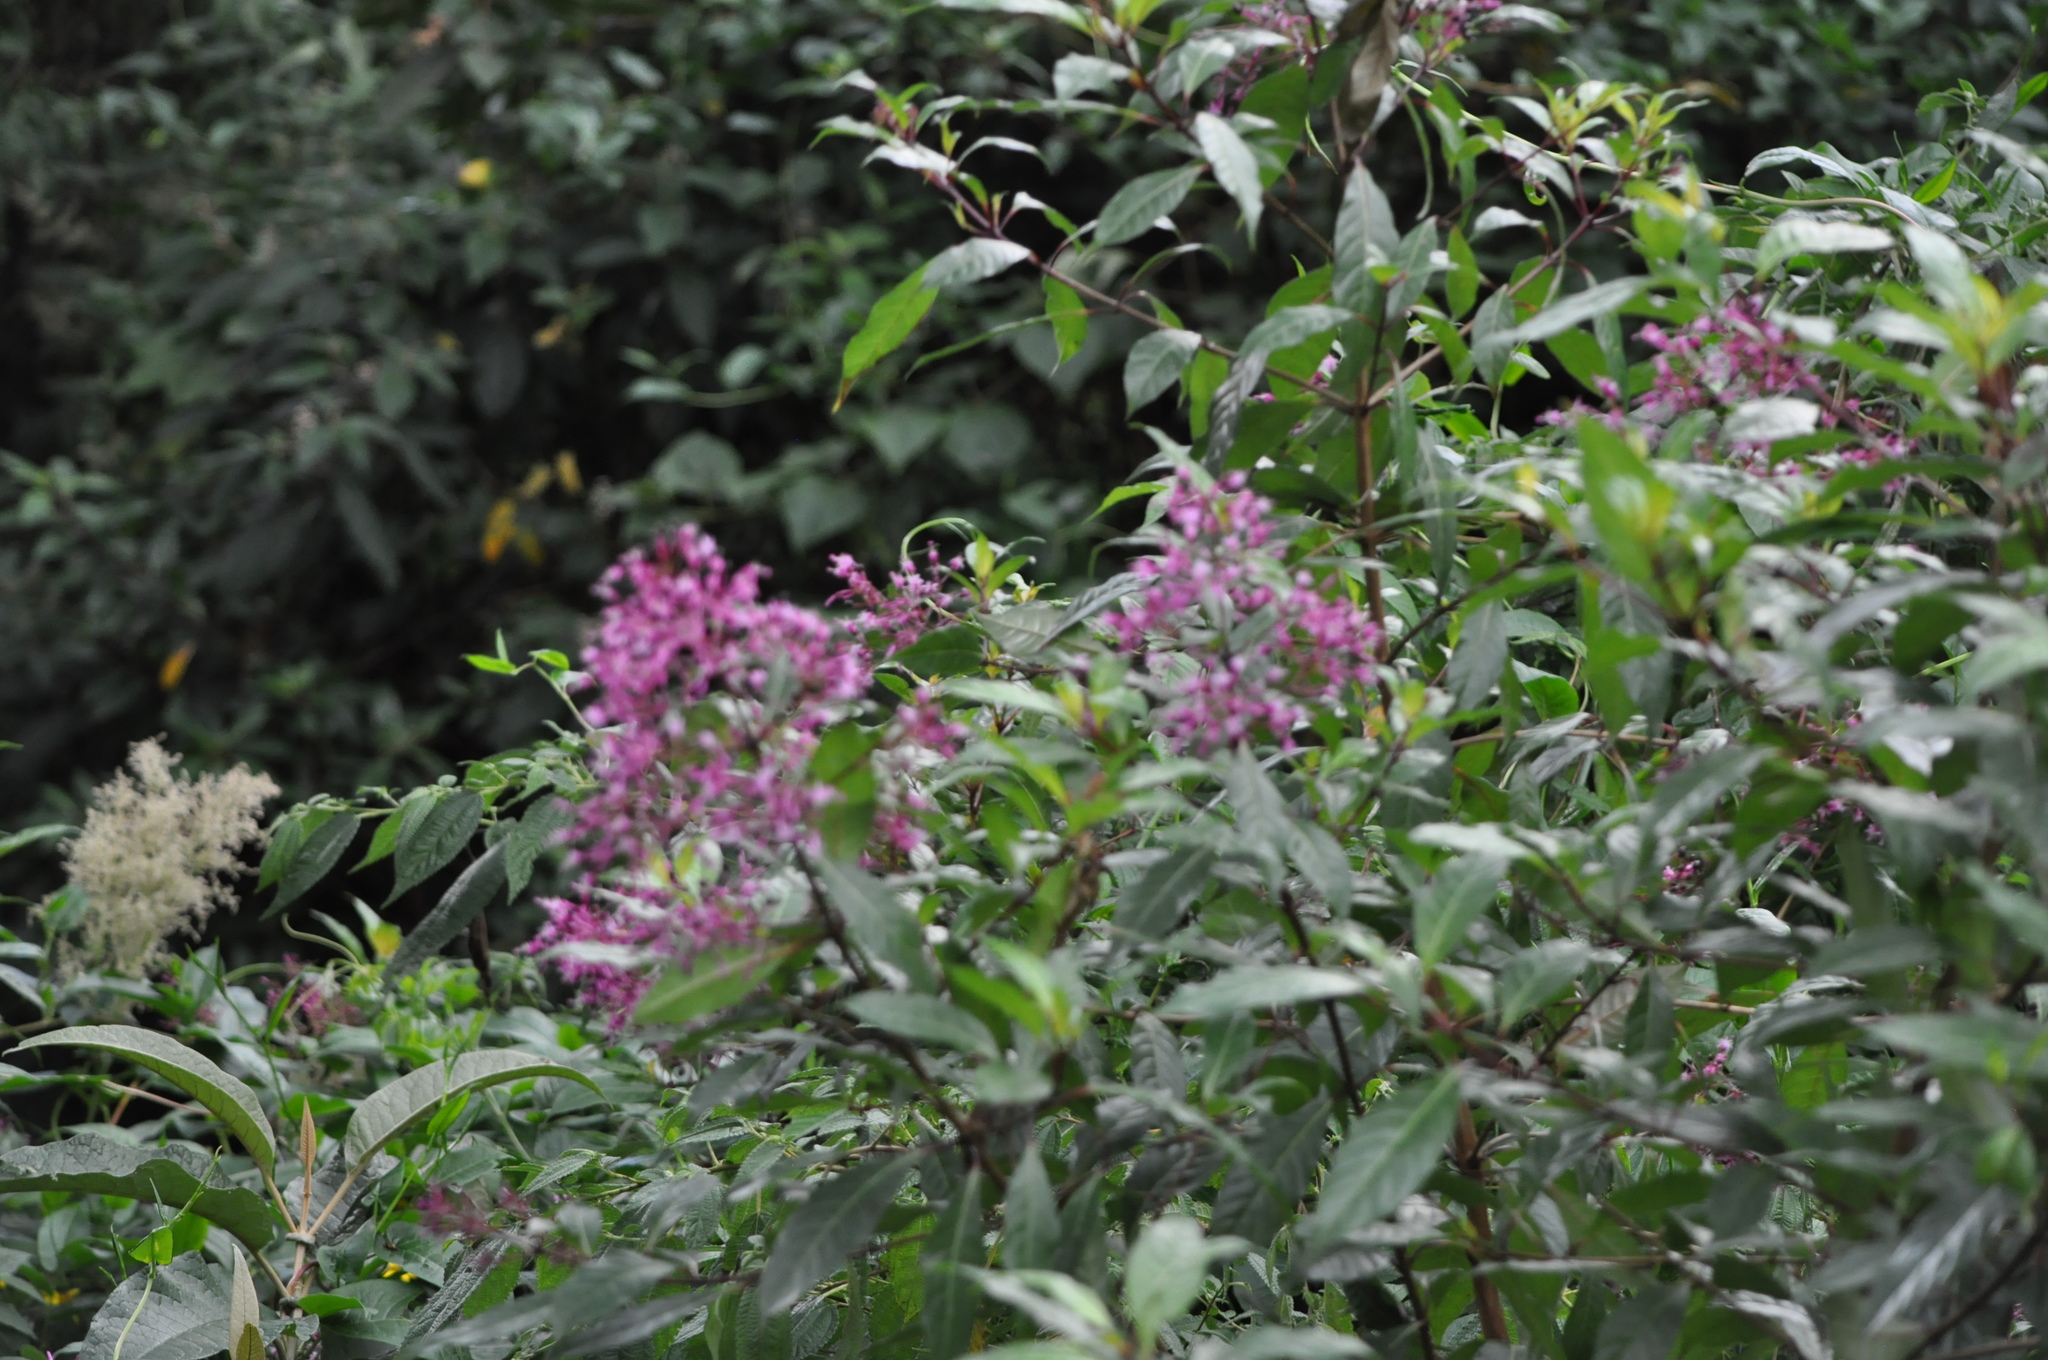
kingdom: Plantae
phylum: Tracheophyta
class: Magnoliopsida
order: Myrtales
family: Onagraceae
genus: Fuchsia
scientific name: Fuchsia paniculata
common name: Shrubby fuchsia
